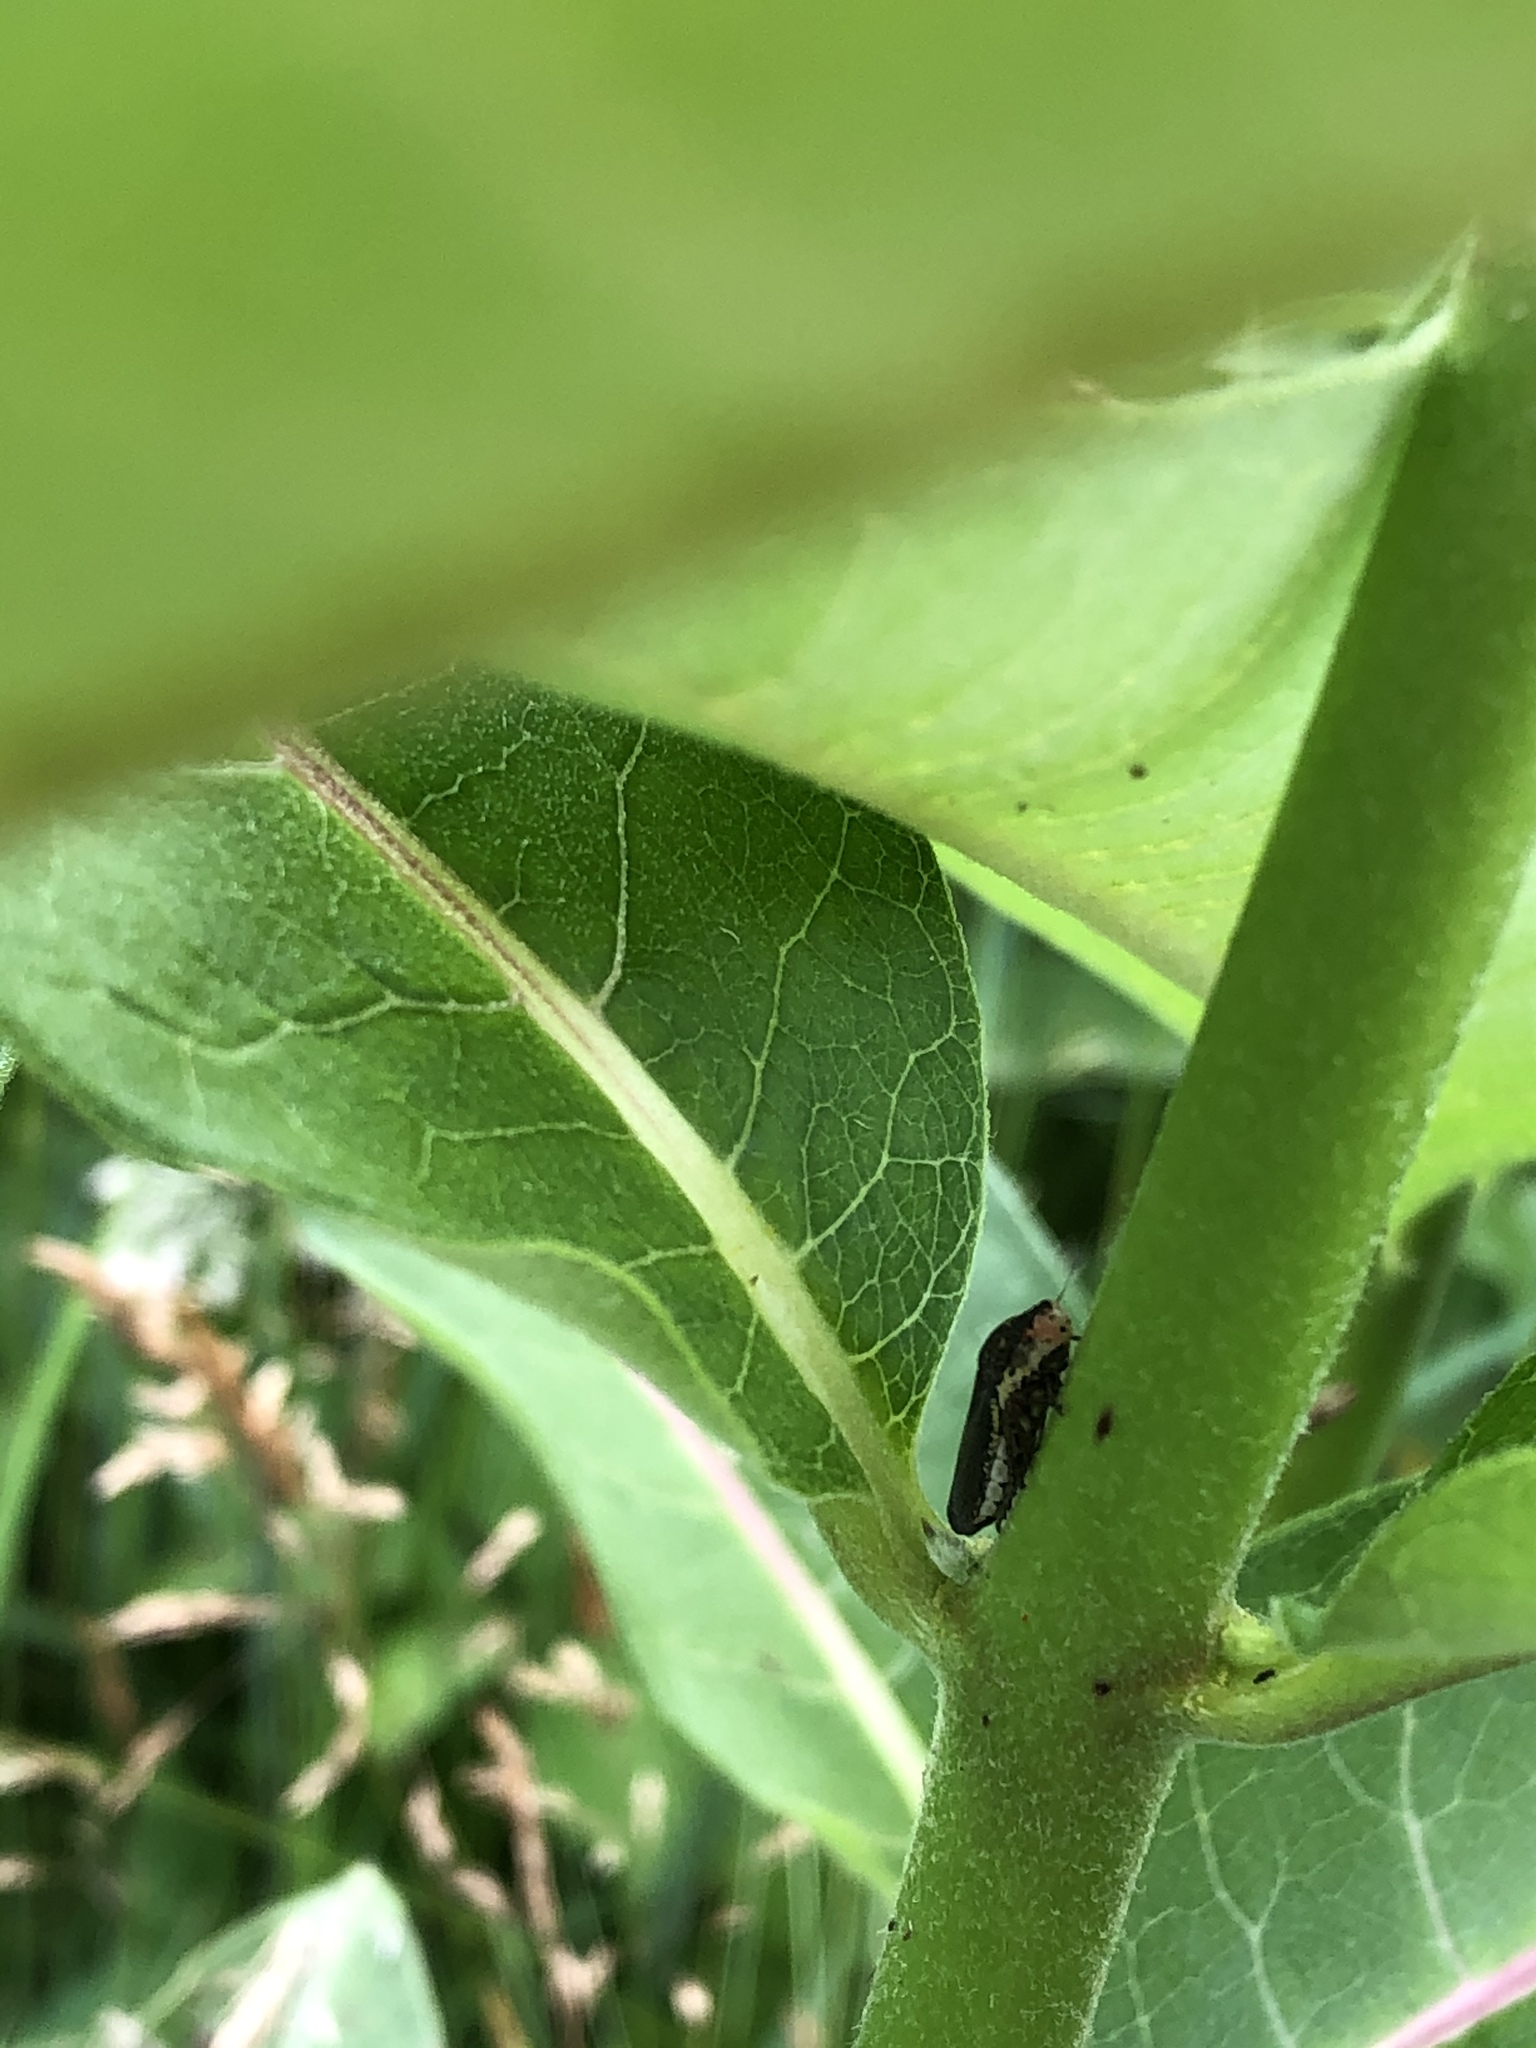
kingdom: Animalia
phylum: Arthropoda
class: Insecta
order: Hemiptera
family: Cicadellidae
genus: Paraulacizes
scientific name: Paraulacizes irrorata
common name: Speckled sharpshooter
